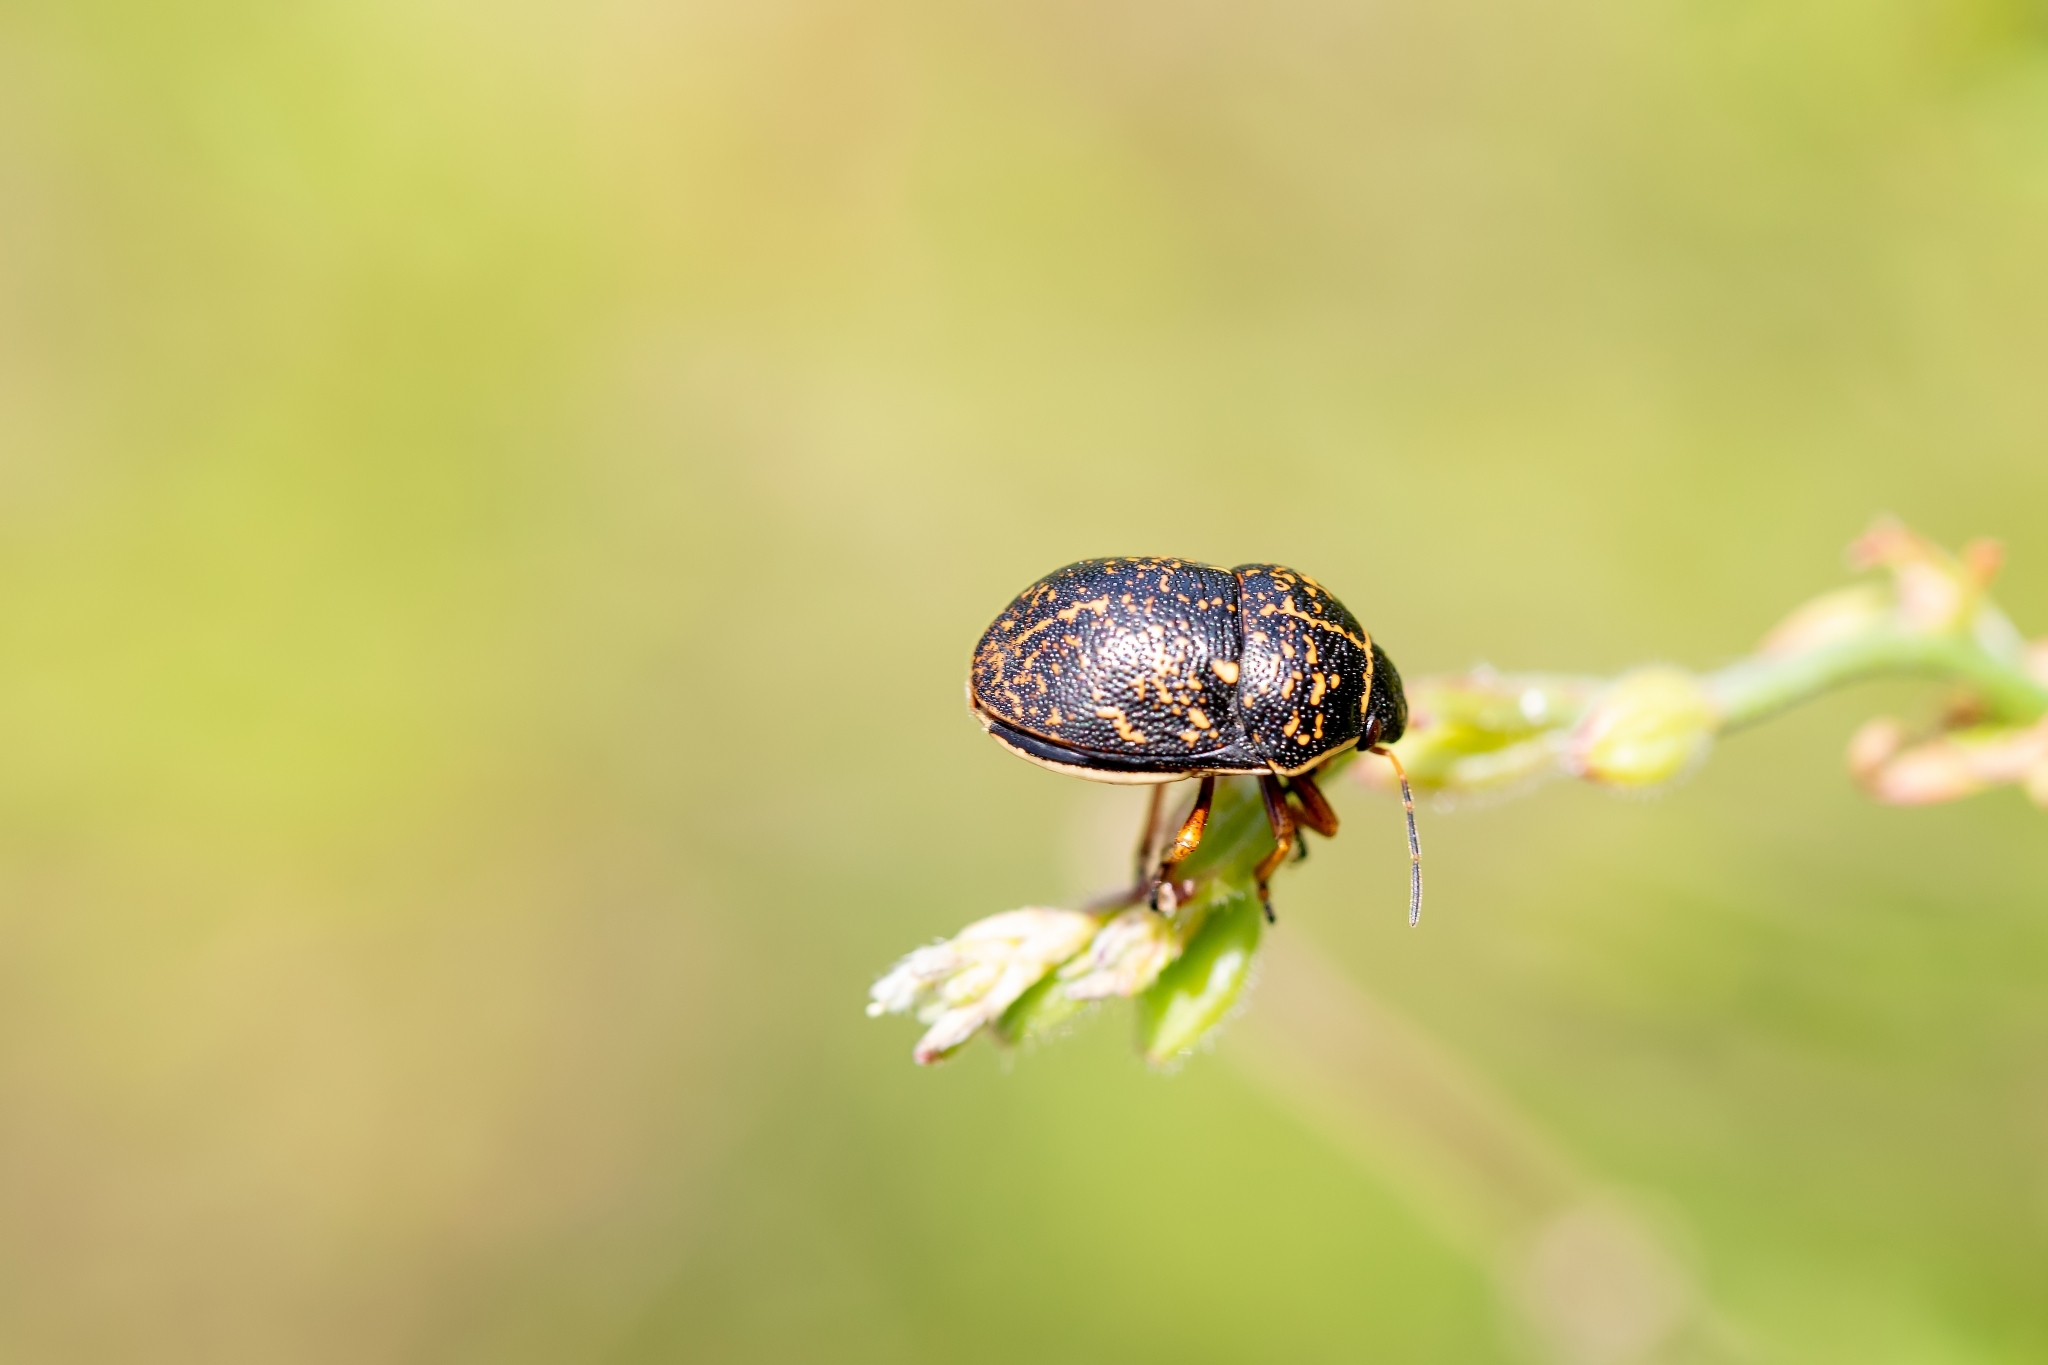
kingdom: Animalia
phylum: Arthropoda
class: Insecta
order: Hemiptera
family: Scutelleridae
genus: Orsilochides
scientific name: Orsilochides guttata
